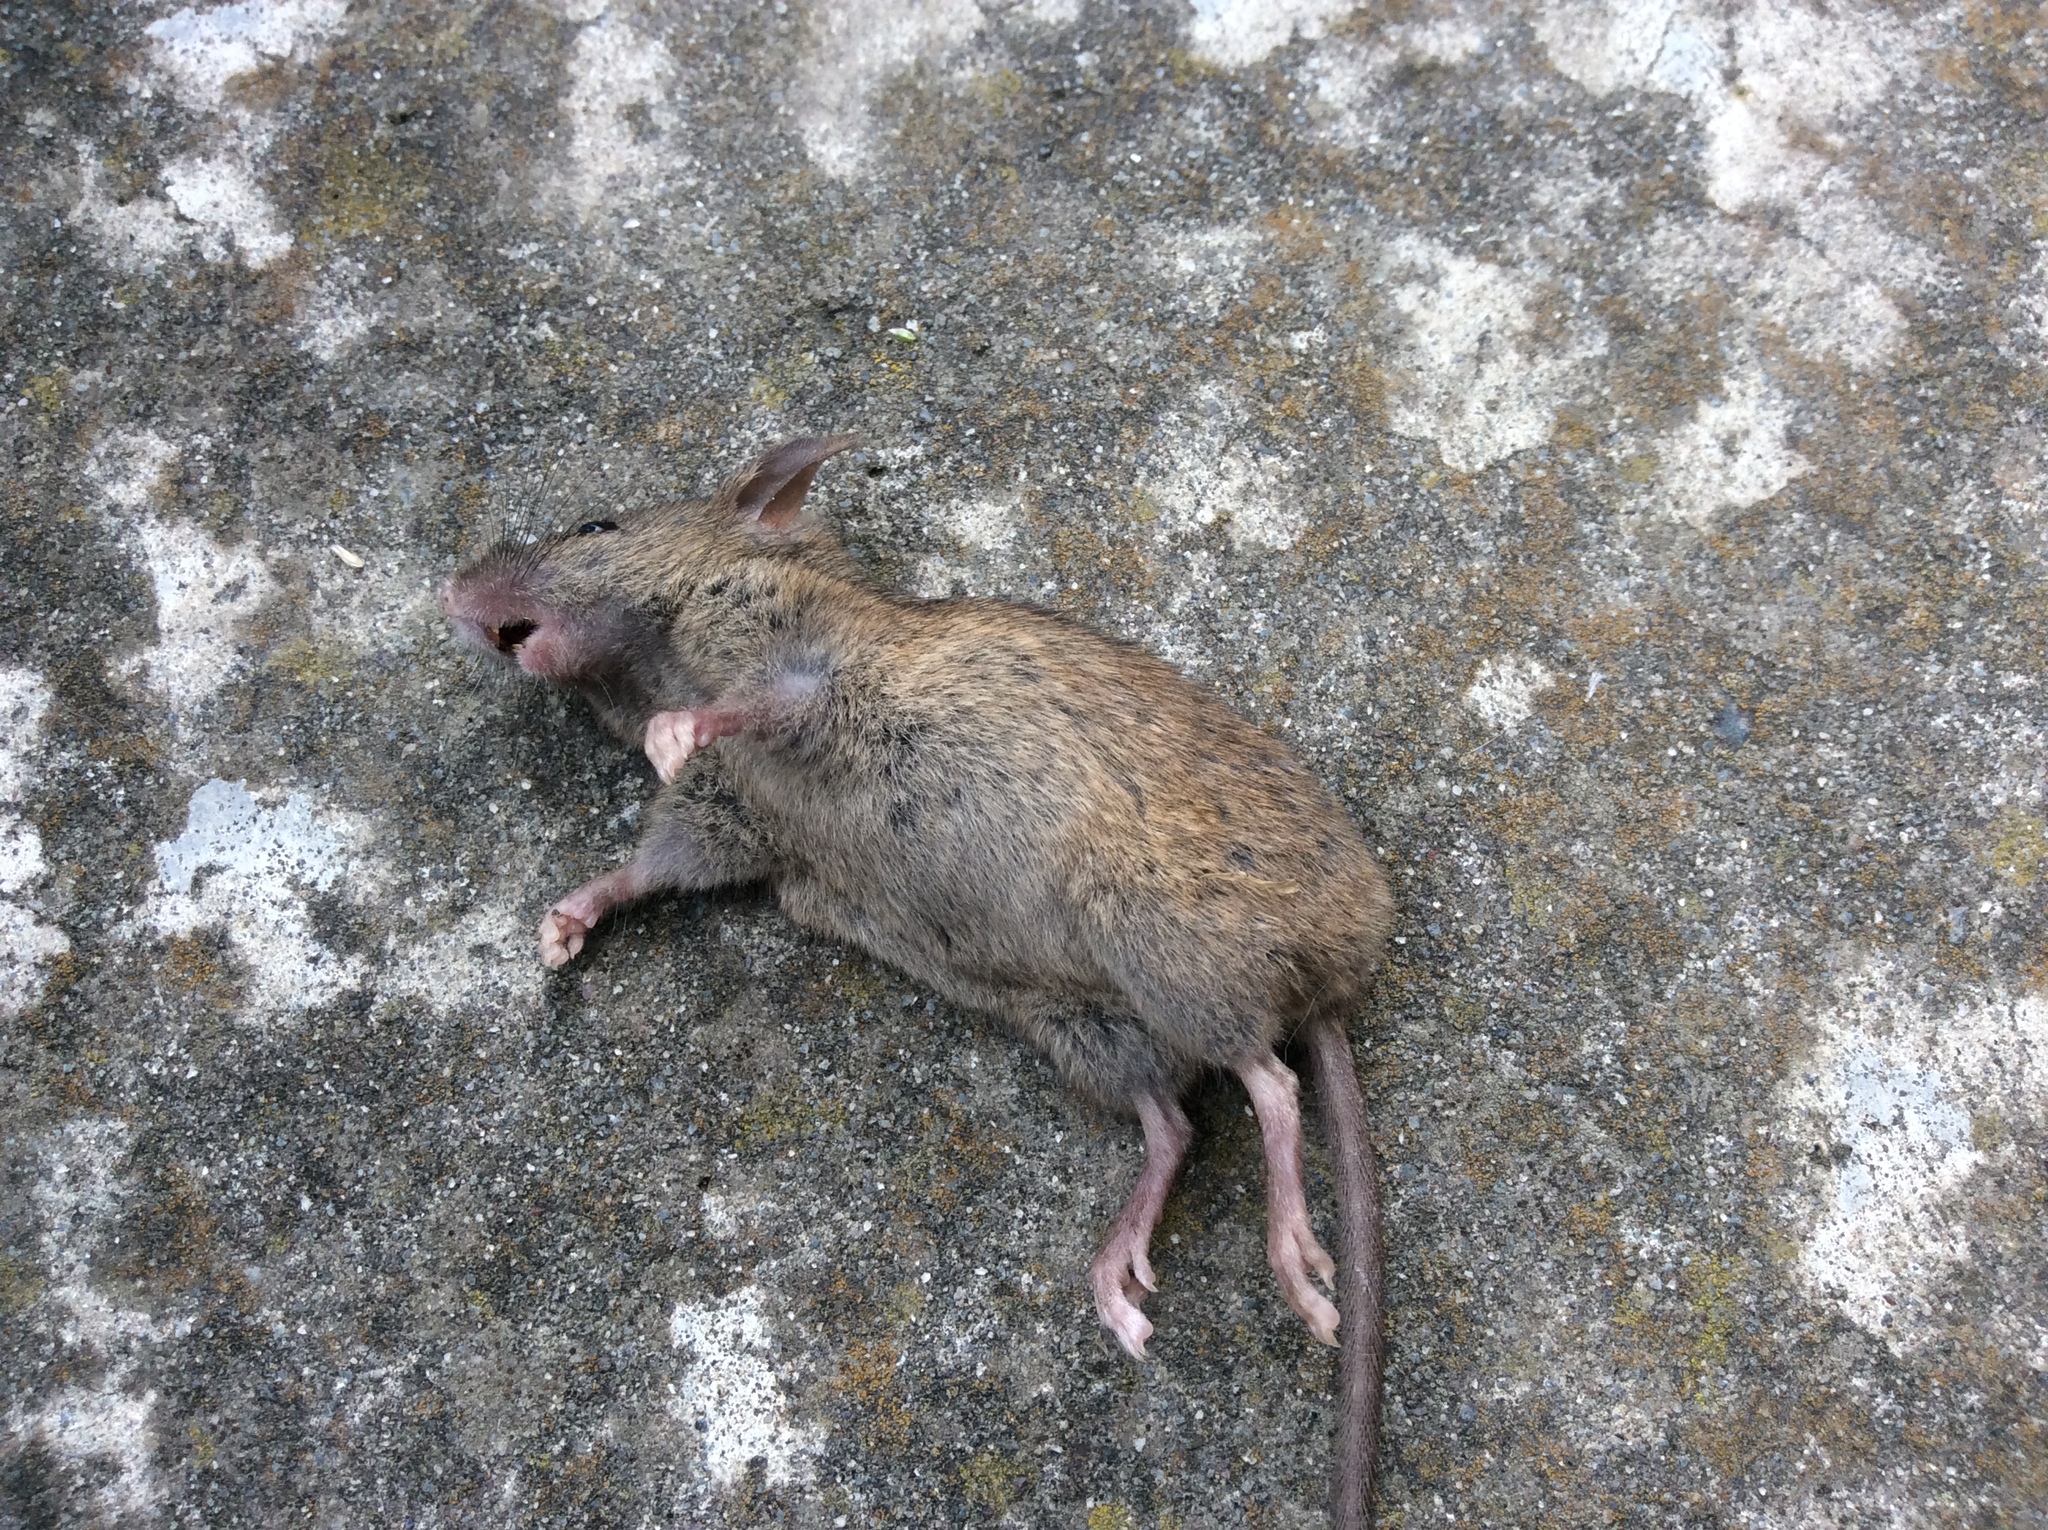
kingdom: Animalia
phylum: Chordata
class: Mammalia
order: Rodentia
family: Muridae
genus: Rattus
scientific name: Rattus rattus
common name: Black rat
